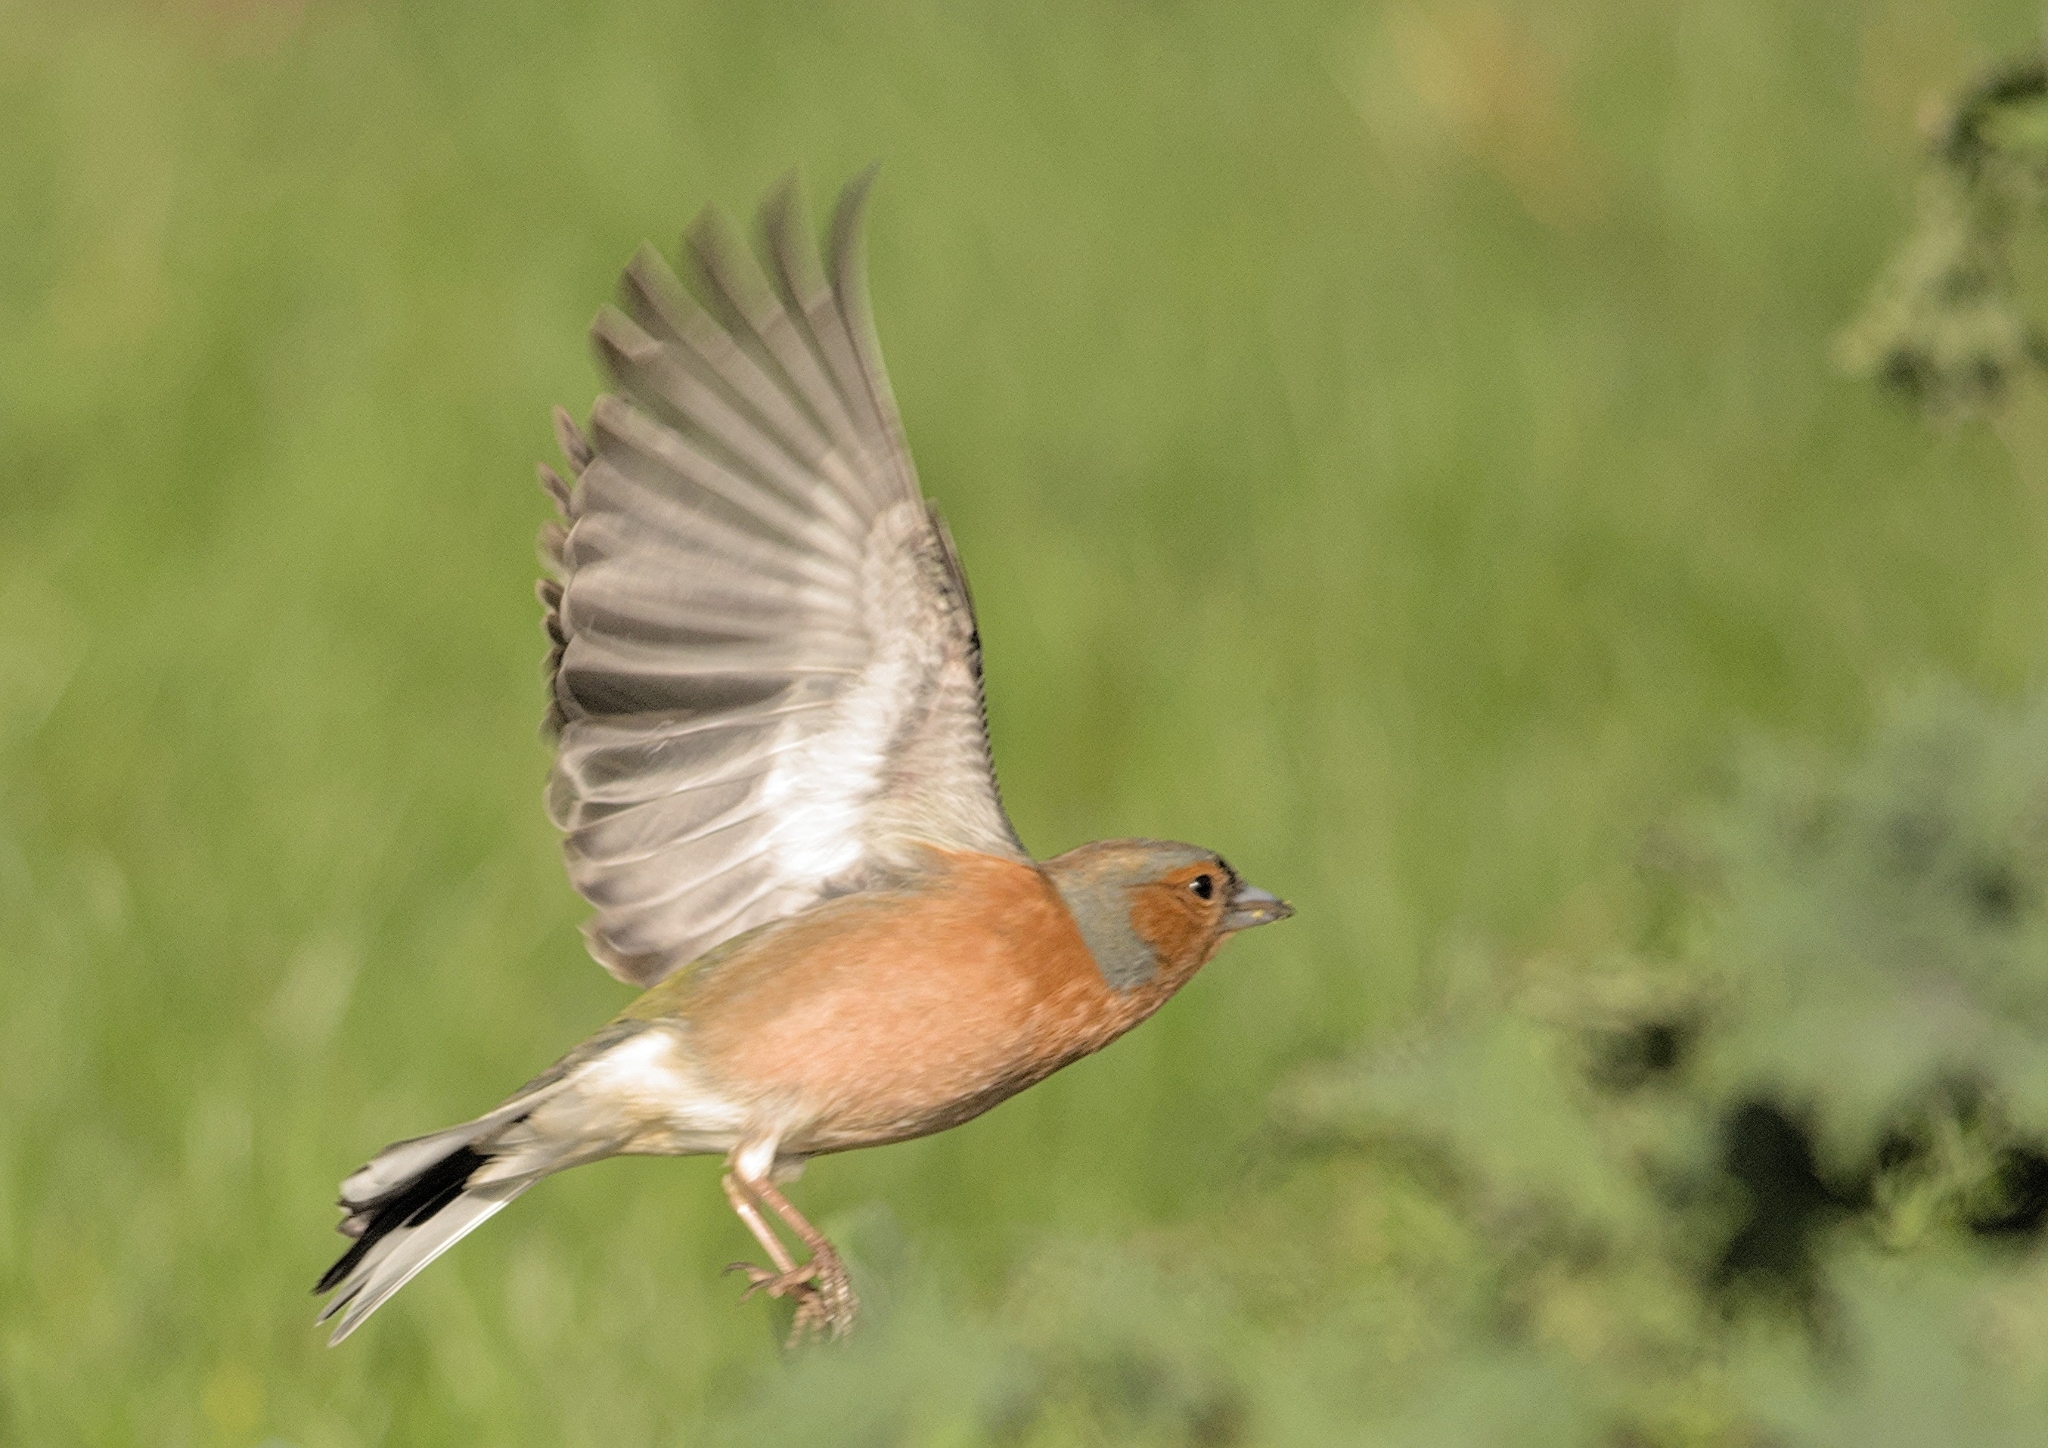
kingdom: Animalia
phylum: Chordata
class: Aves
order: Passeriformes
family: Fringillidae
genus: Fringilla
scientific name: Fringilla coelebs
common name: Common chaffinch
